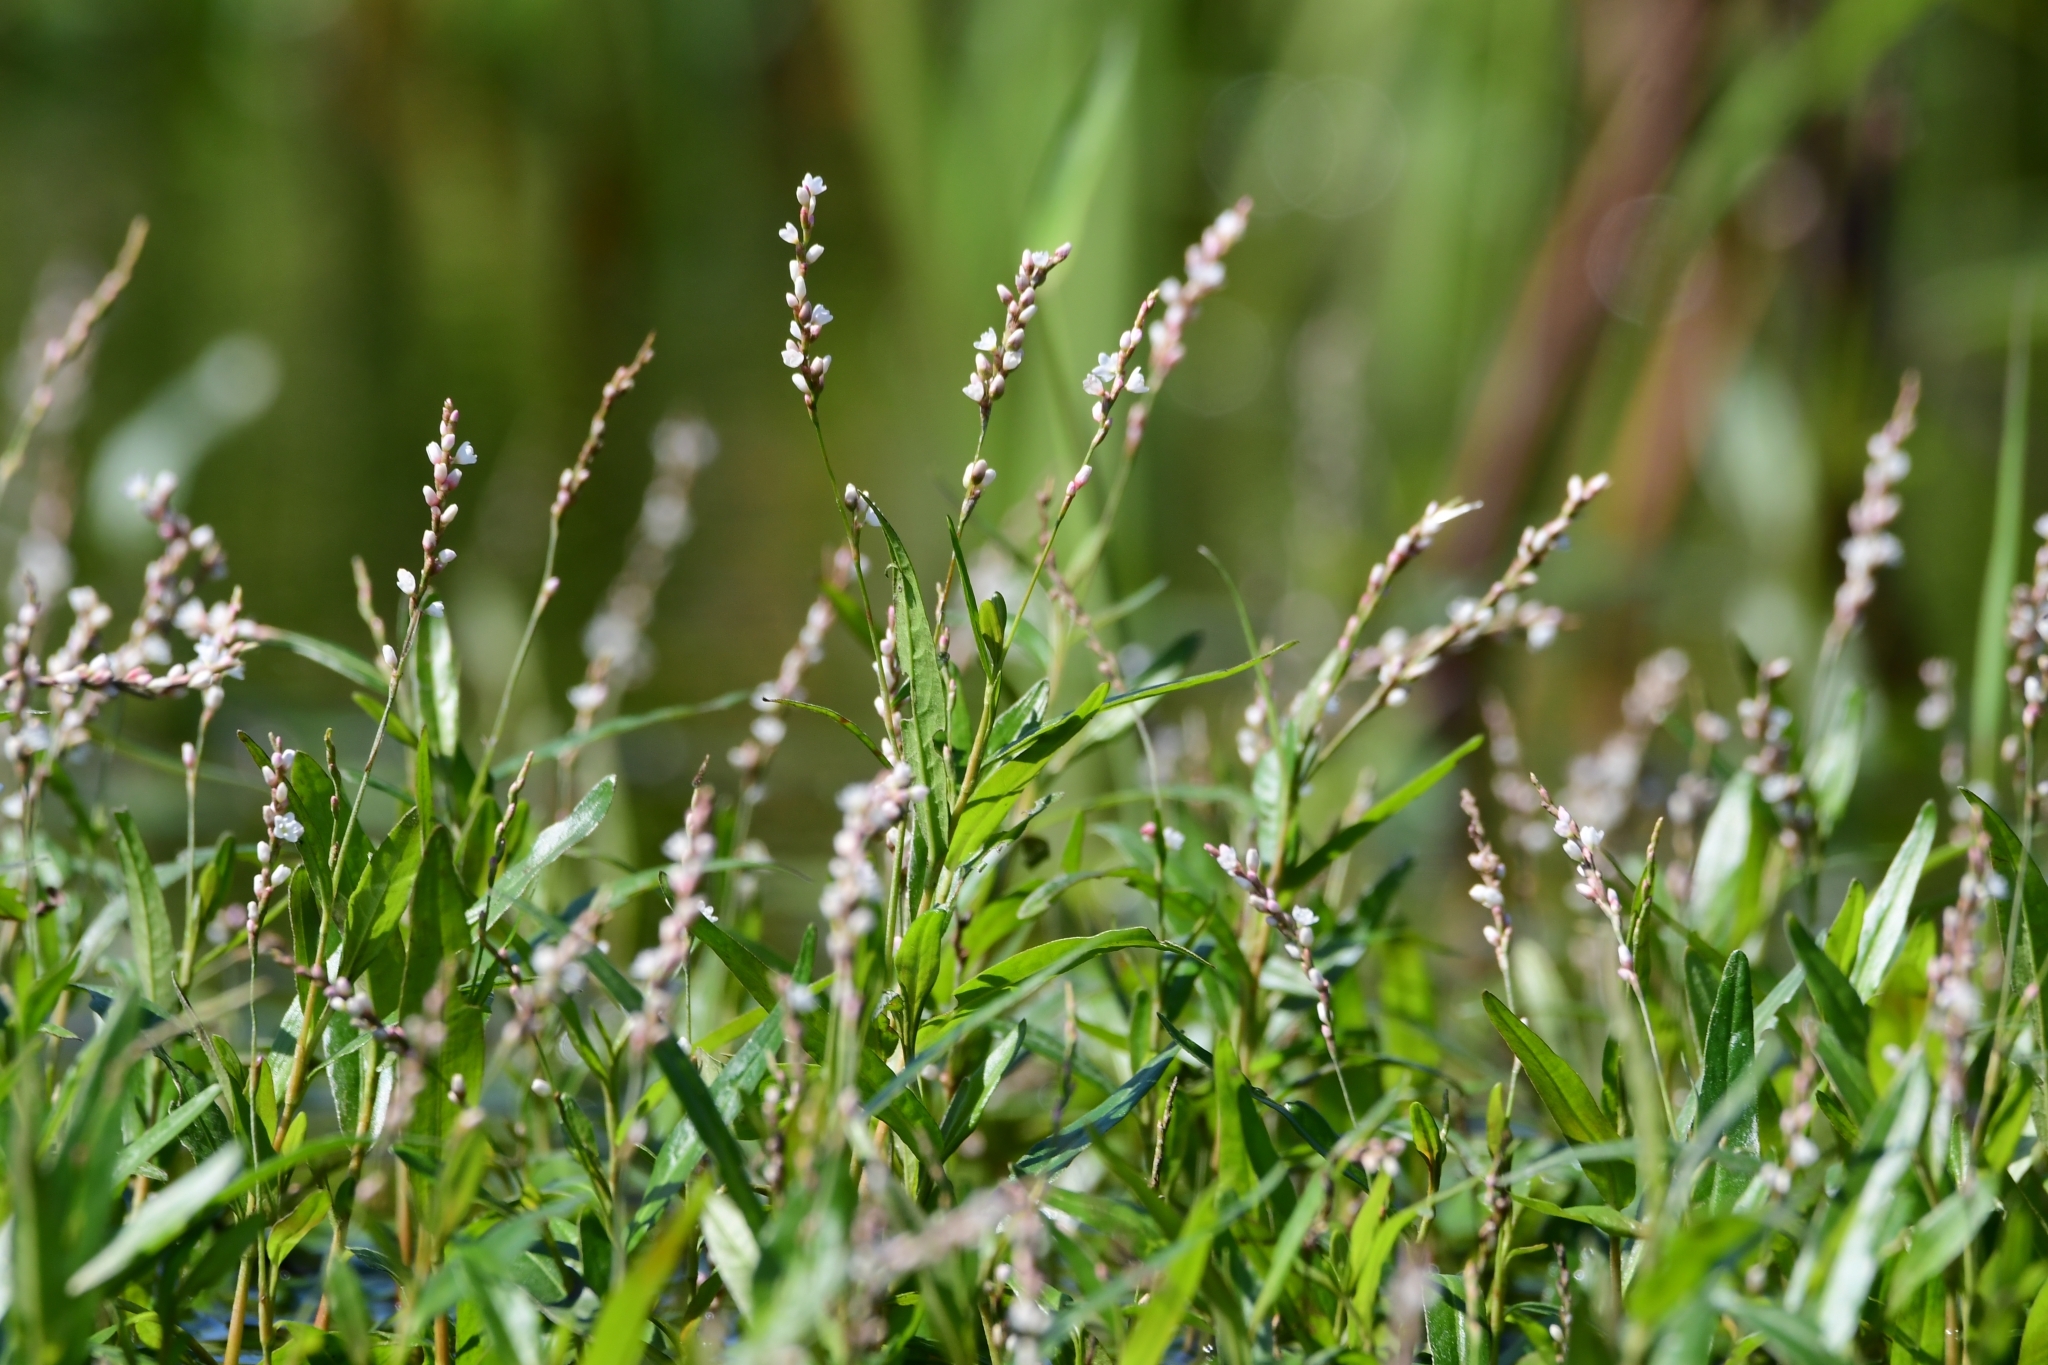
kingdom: Plantae
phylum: Tracheophyta
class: Magnoliopsida
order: Caryophyllales
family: Polygonaceae
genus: Persicaria
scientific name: Persicaria hydropiperoides
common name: Swamp smartweed
